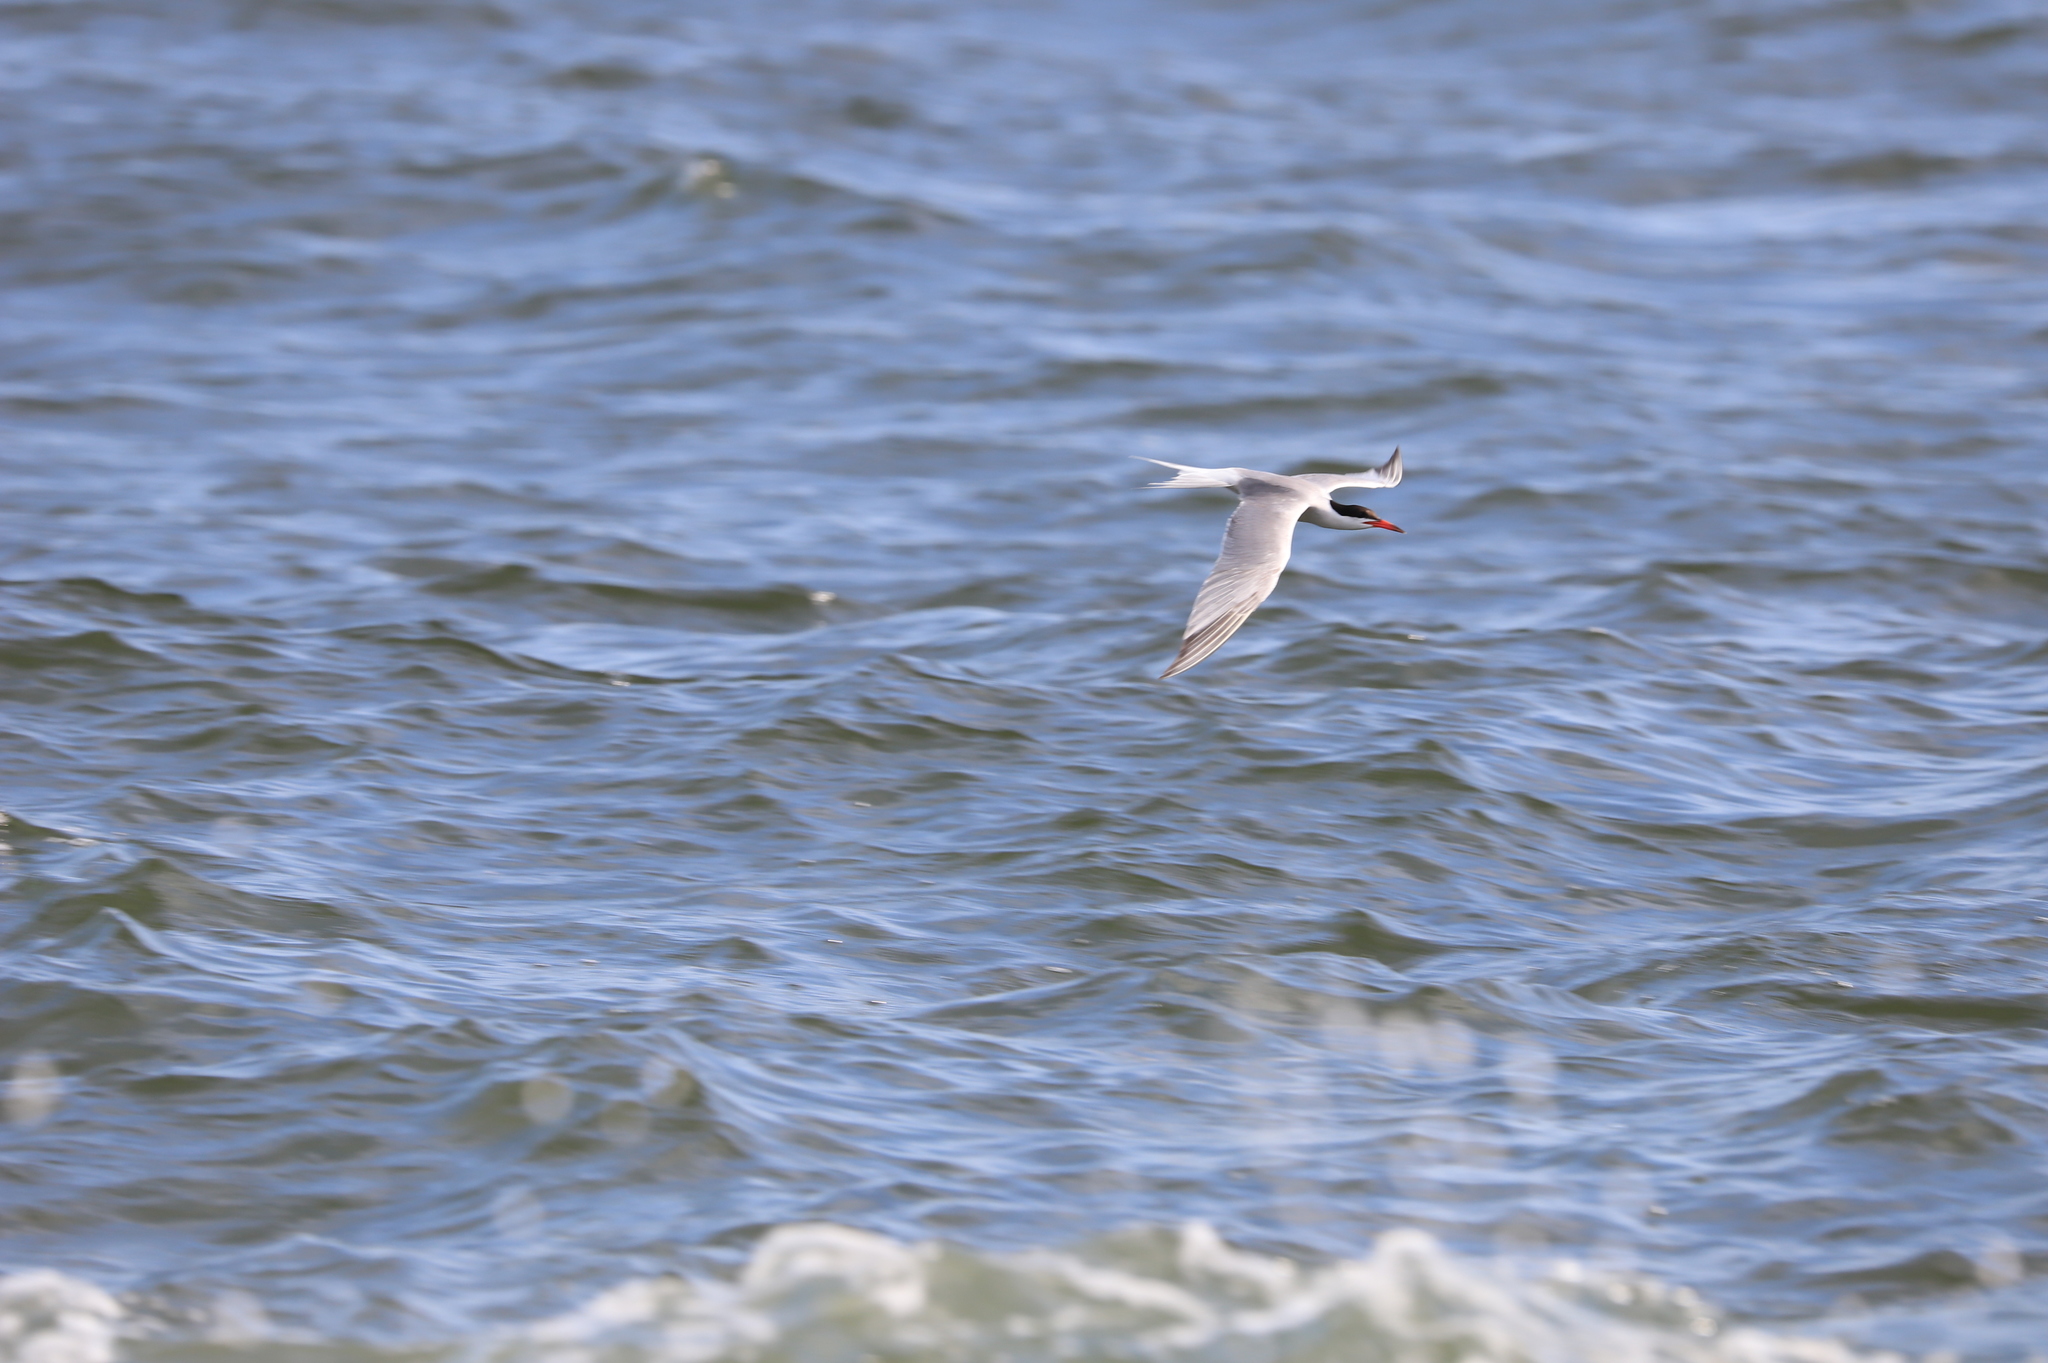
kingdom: Animalia
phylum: Chordata
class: Aves
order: Charadriiformes
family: Laridae
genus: Sterna
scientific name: Sterna hirundo
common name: Common tern
